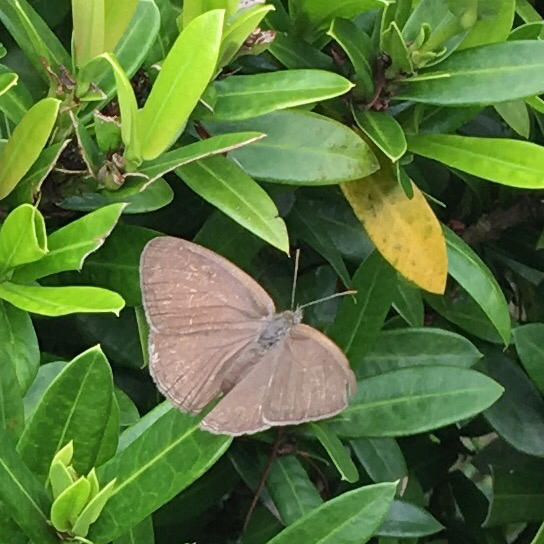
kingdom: Animalia
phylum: Arthropoda
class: Insecta
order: Lepidoptera
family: Nymphalidae
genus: Hermeuptychia
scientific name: Hermeuptychia canthe
